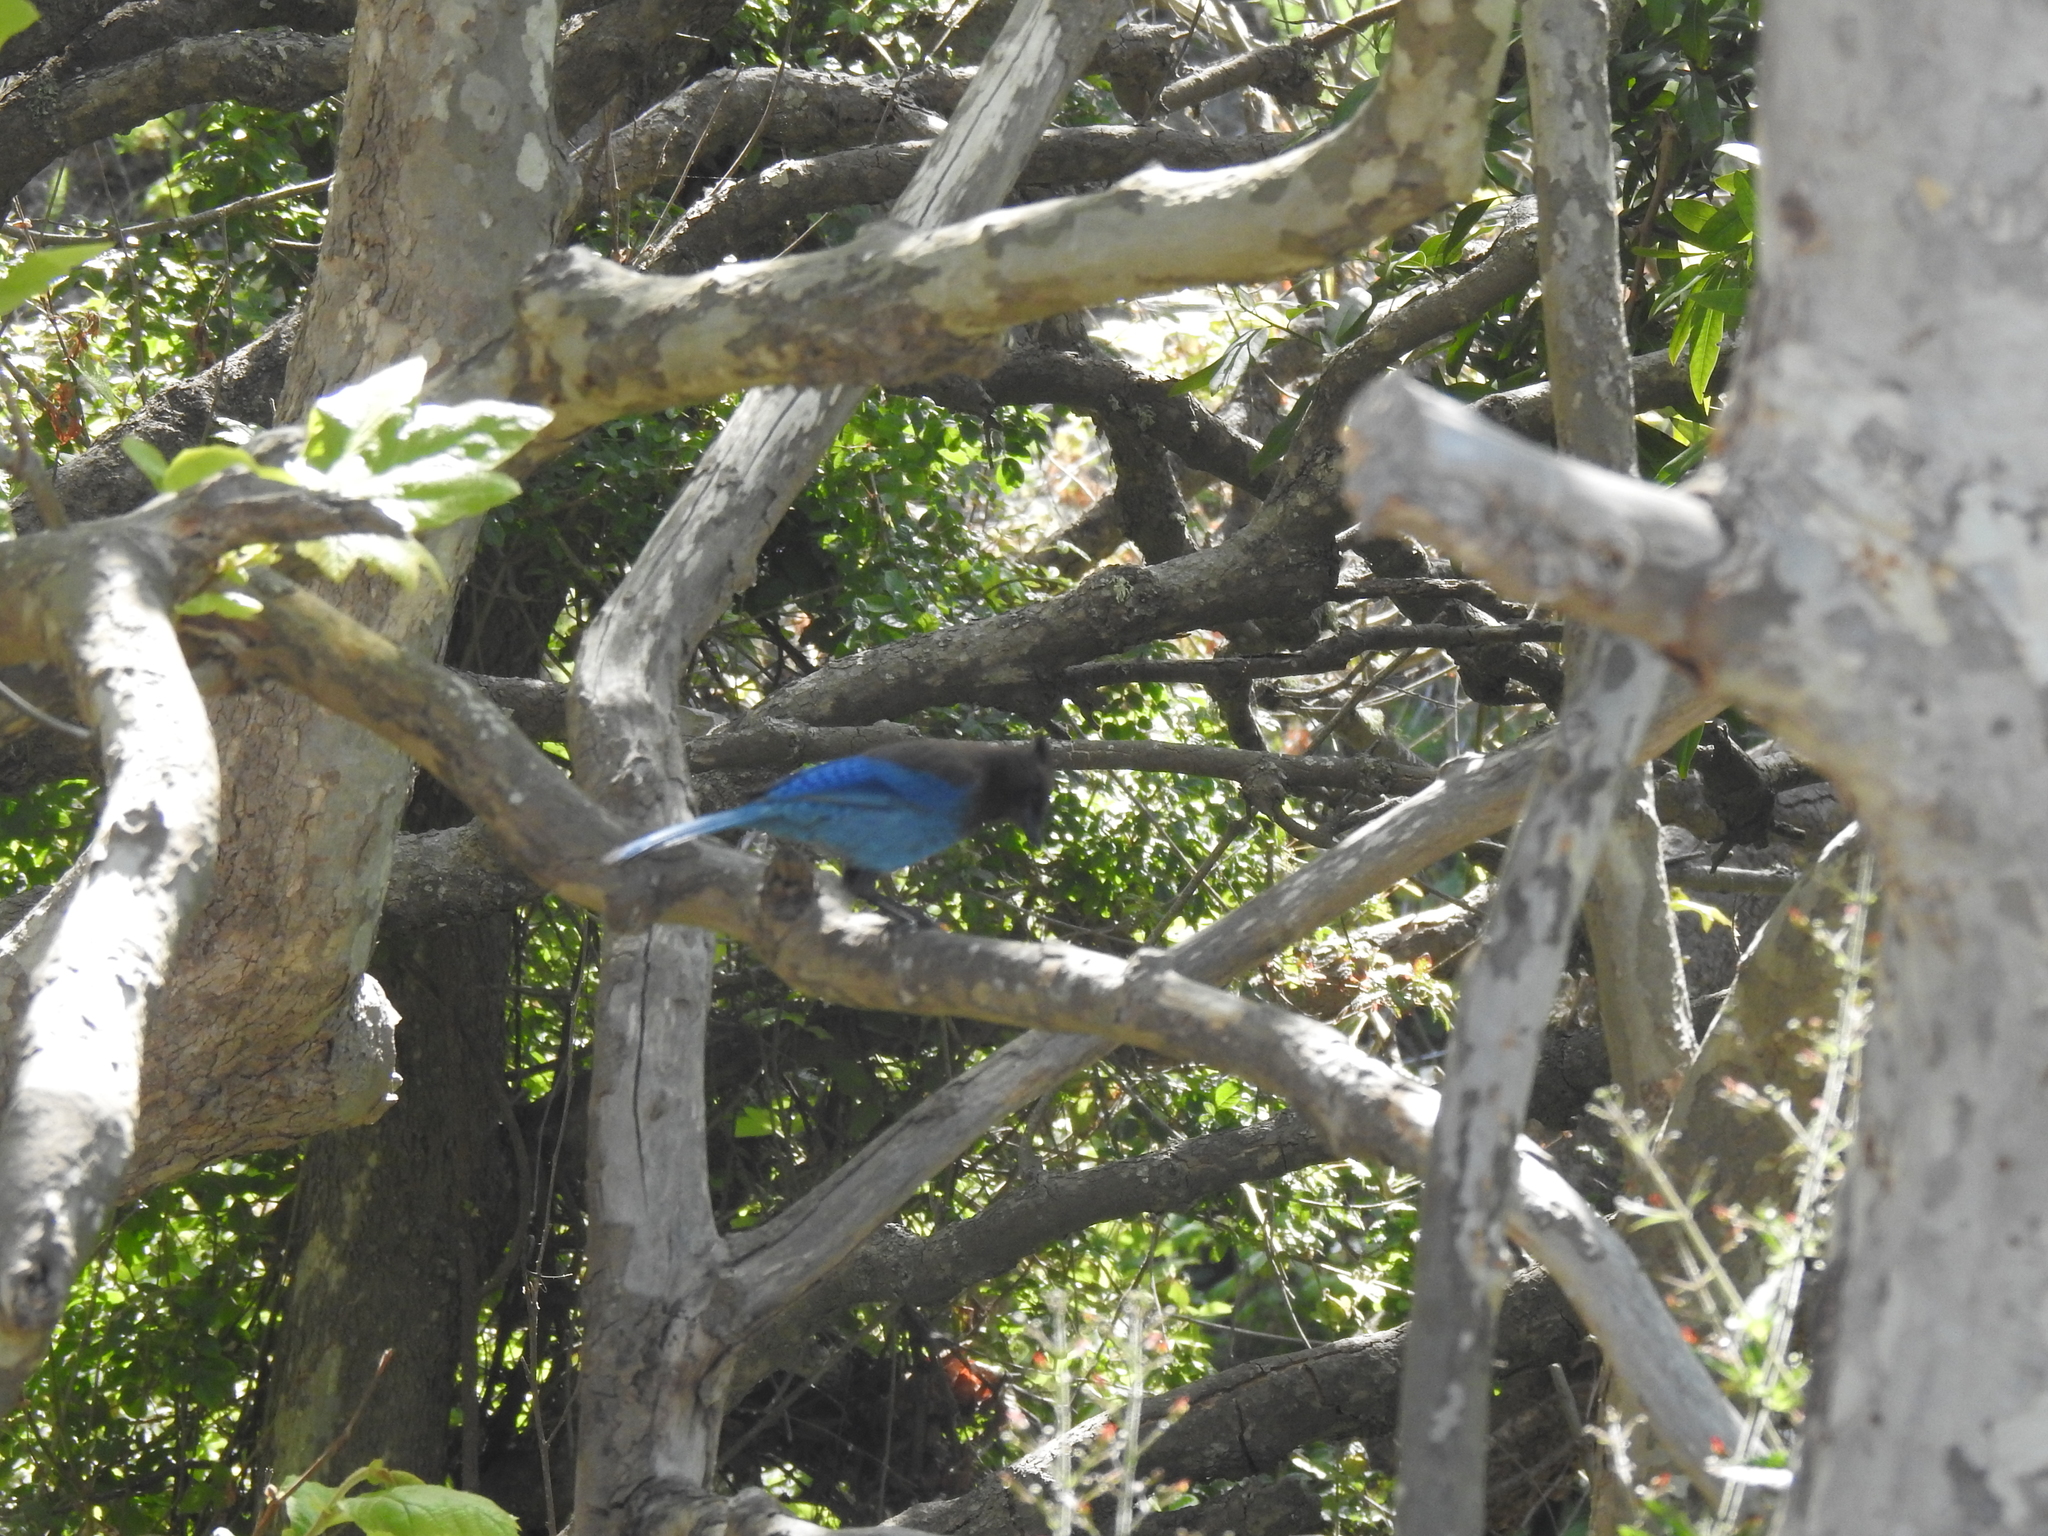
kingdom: Animalia
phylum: Chordata
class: Aves
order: Passeriformes
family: Corvidae
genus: Cyanocitta
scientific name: Cyanocitta stelleri
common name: Steller's jay
